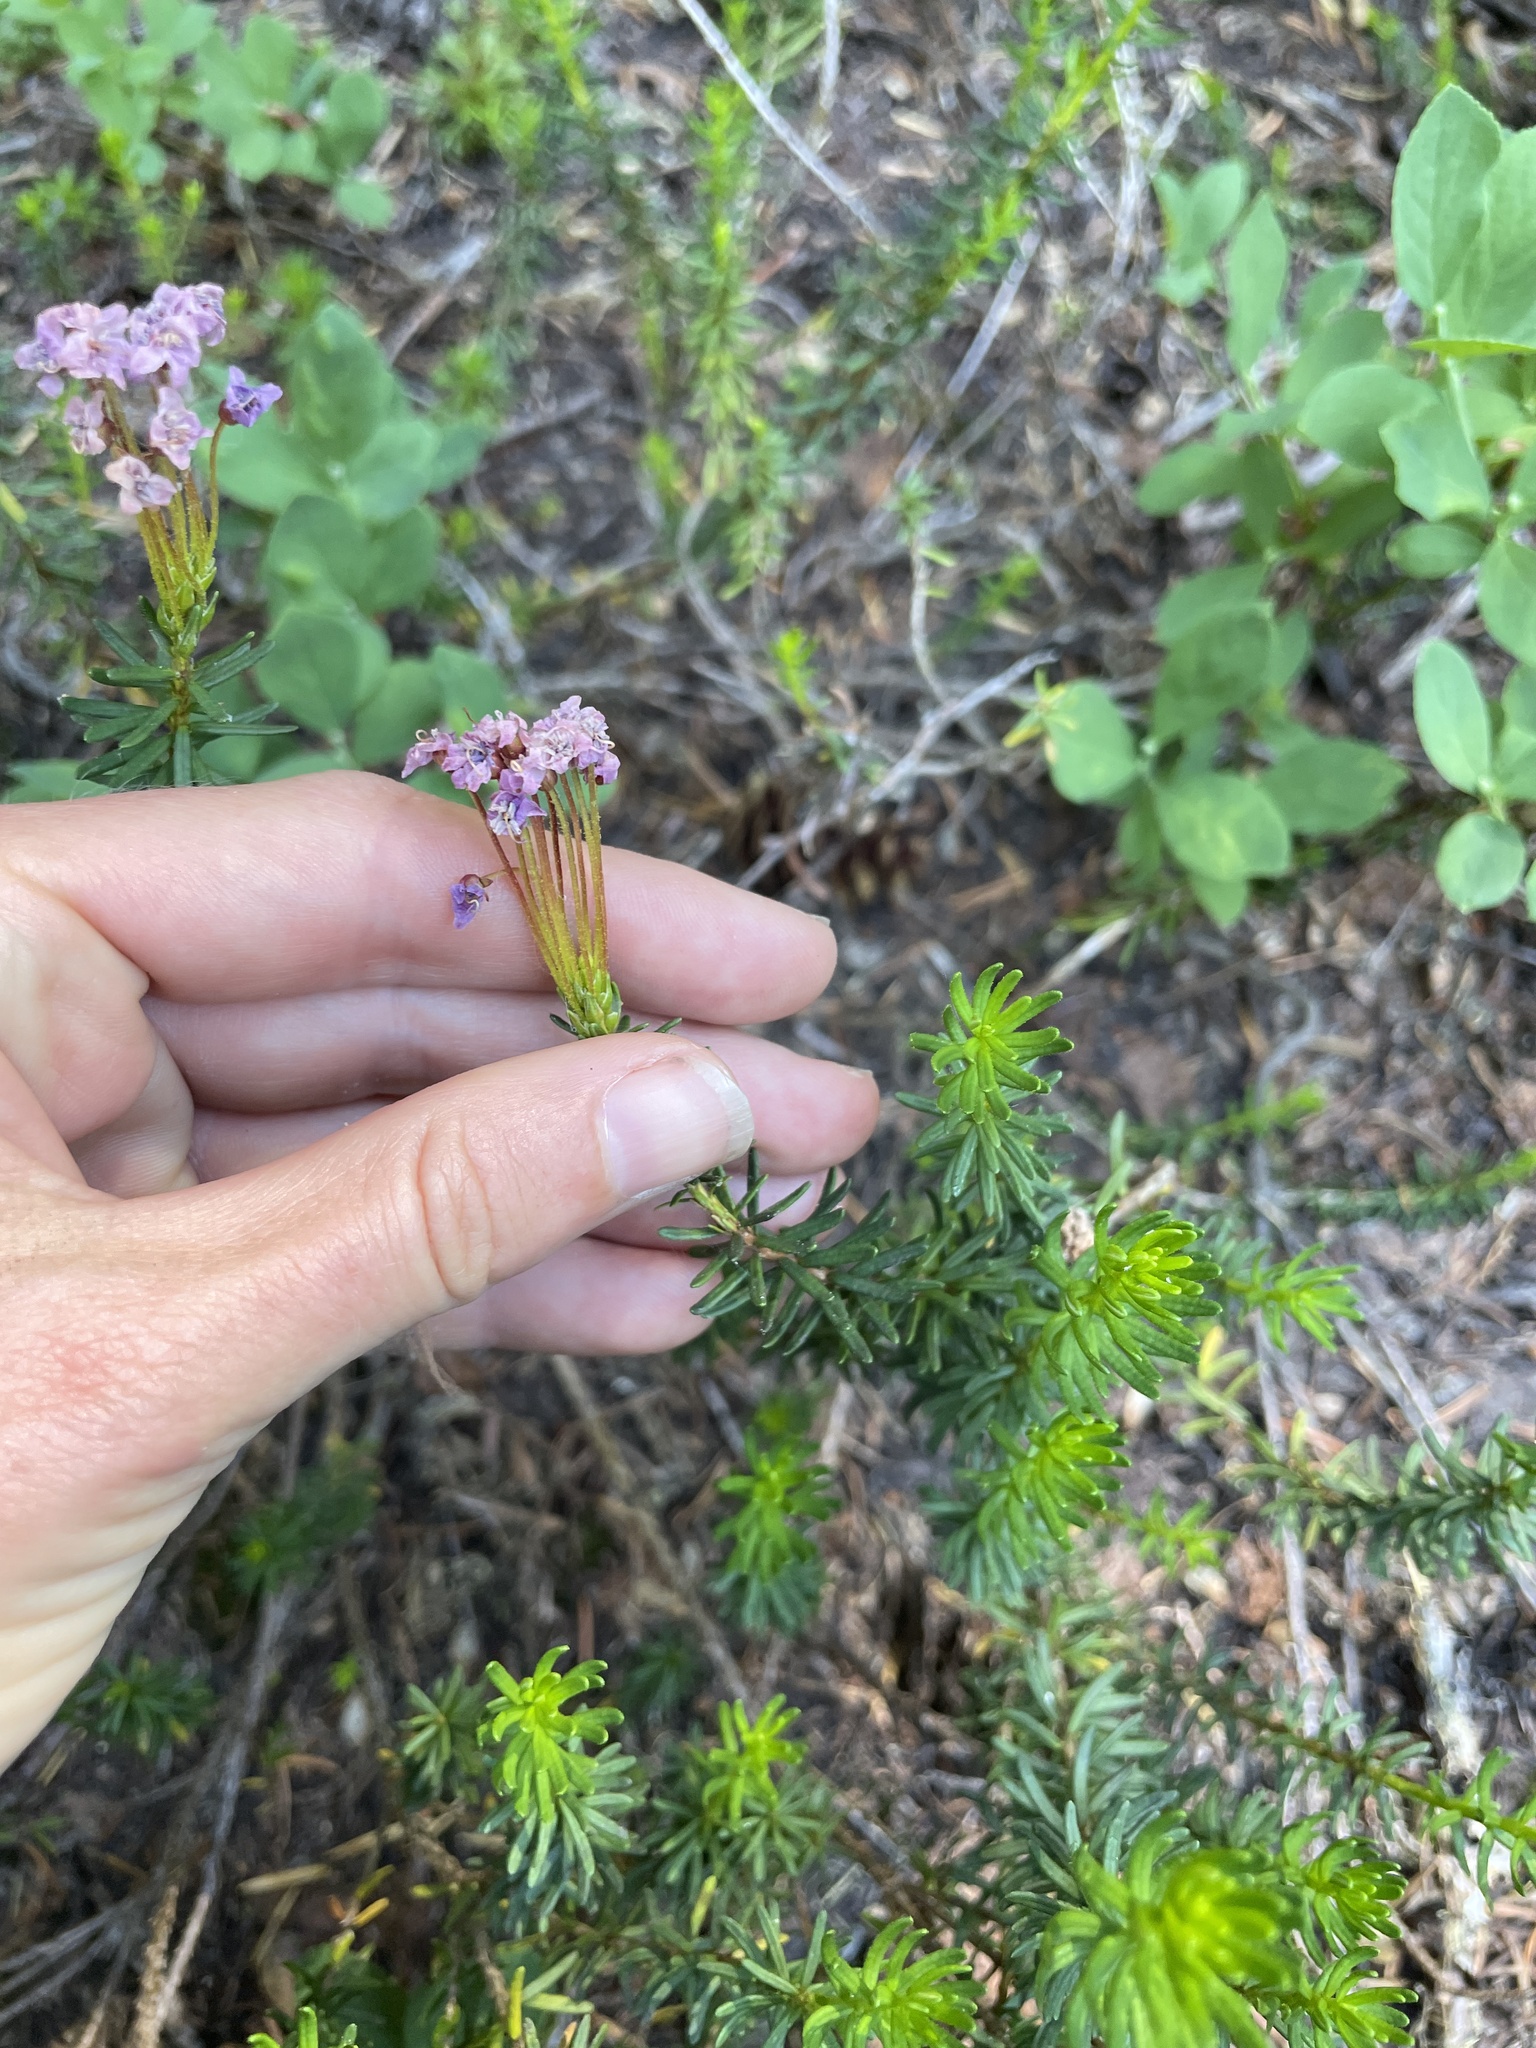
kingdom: Plantae
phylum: Tracheophyta
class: Magnoliopsida
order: Ericales
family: Ericaceae
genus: Phyllodoce
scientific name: Phyllodoce empetriformis
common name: Pink mountain heather
